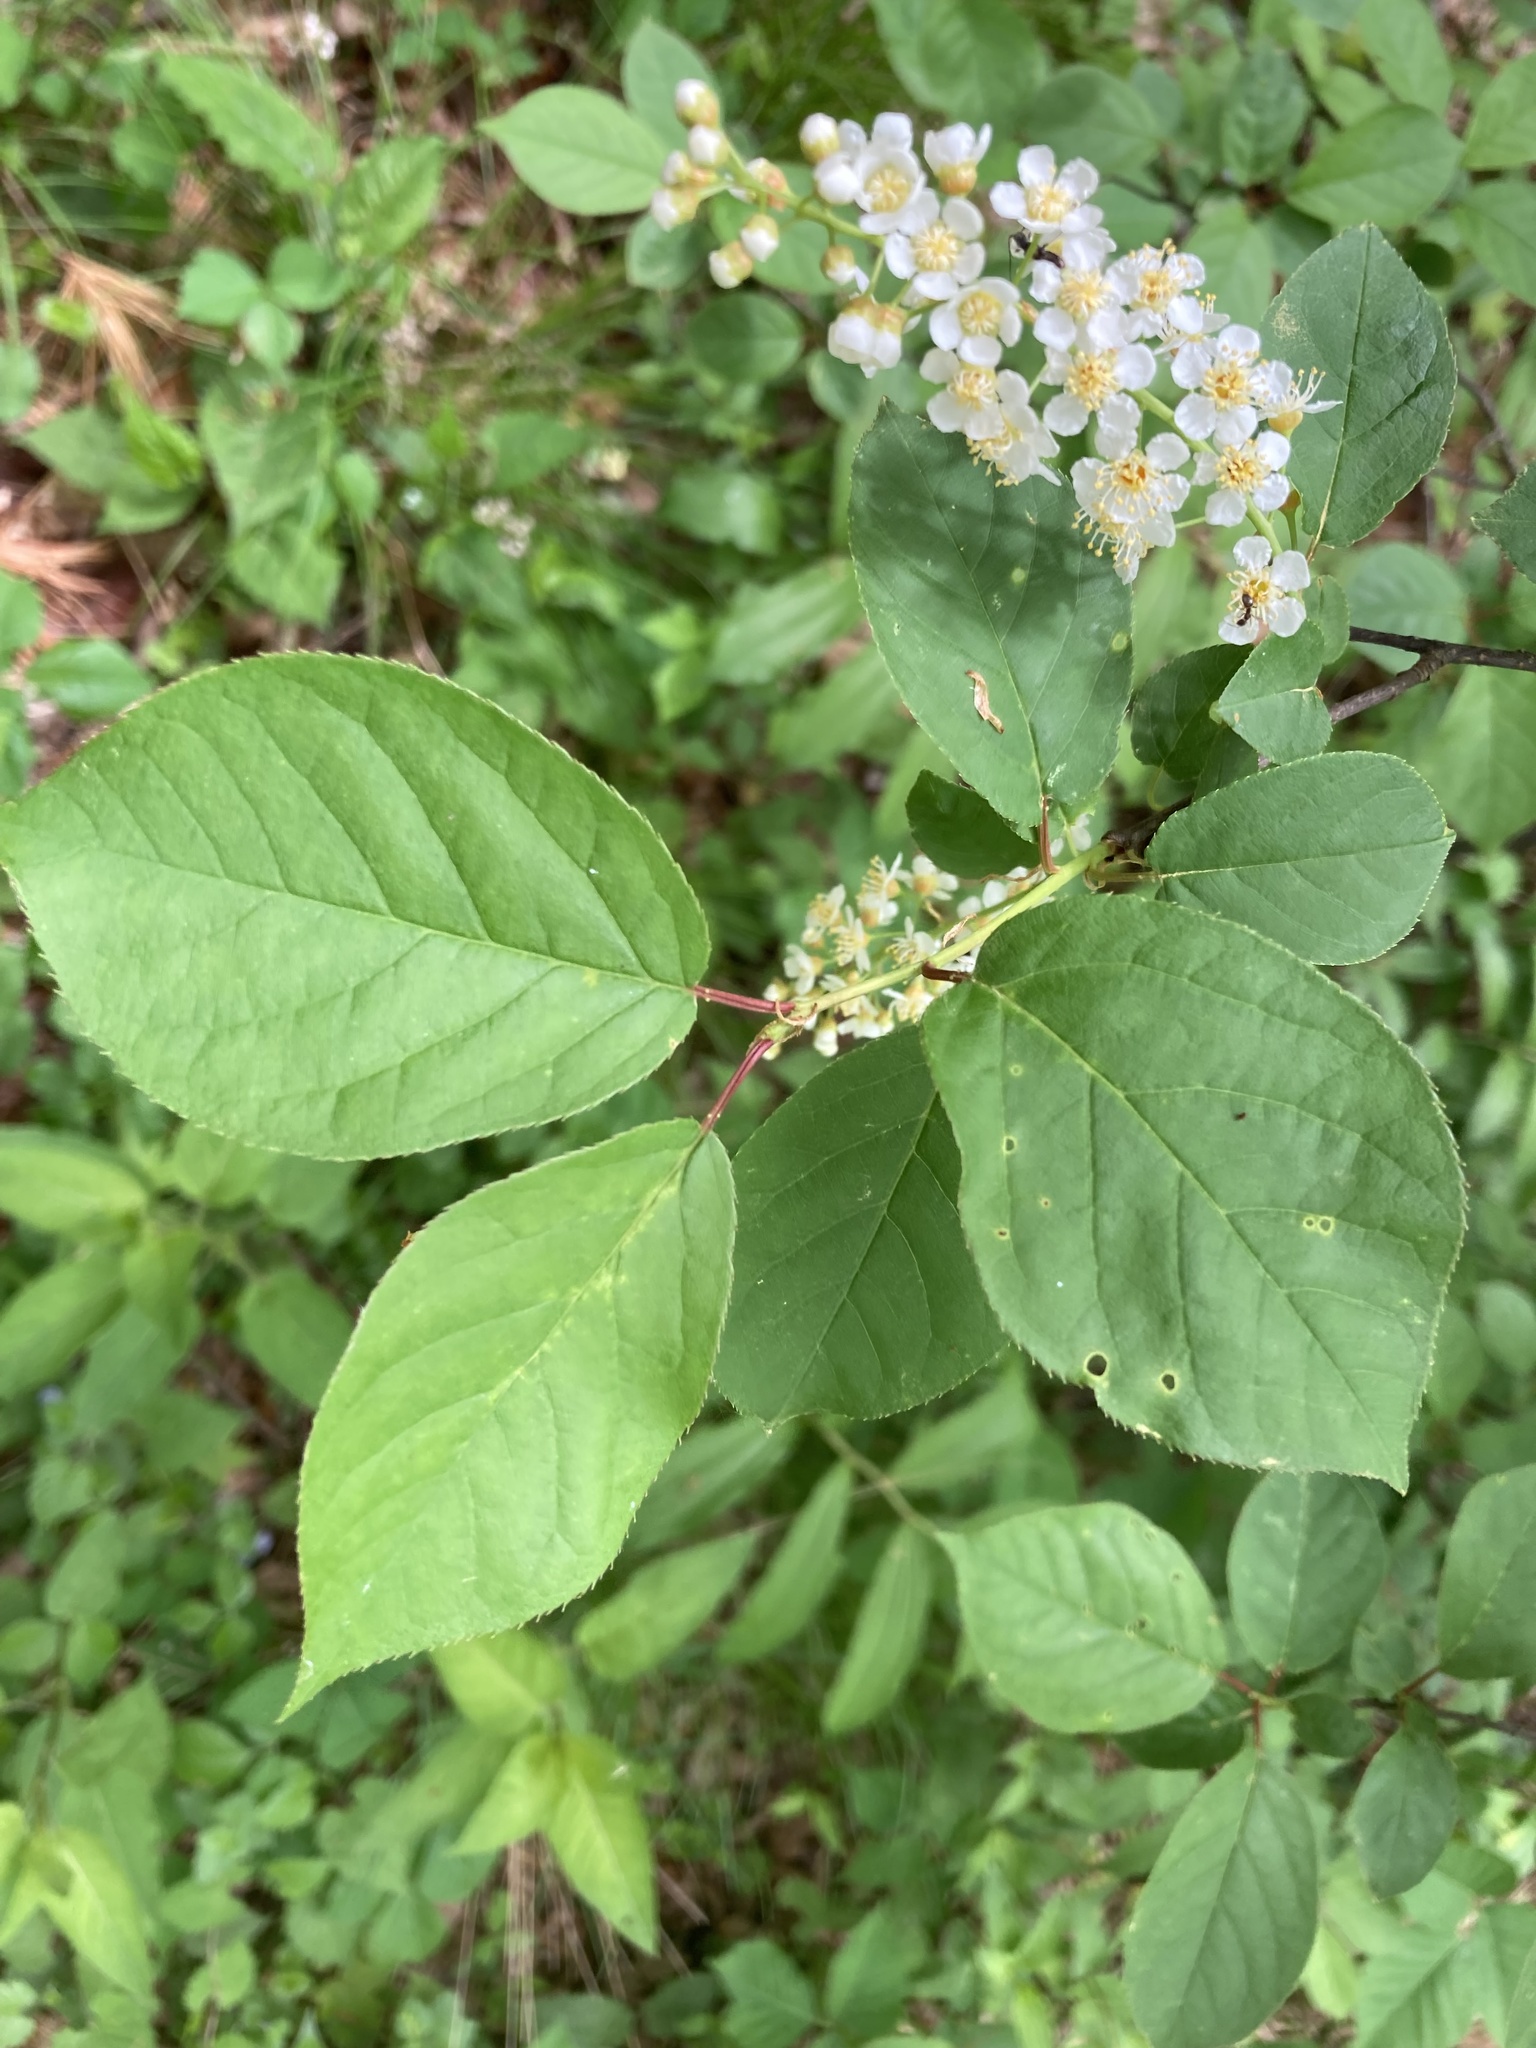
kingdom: Plantae
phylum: Tracheophyta
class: Magnoliopsida
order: Rosales
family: Rosaceae
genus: Prunus
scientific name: Prunus virginiana
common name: Chokecherry
